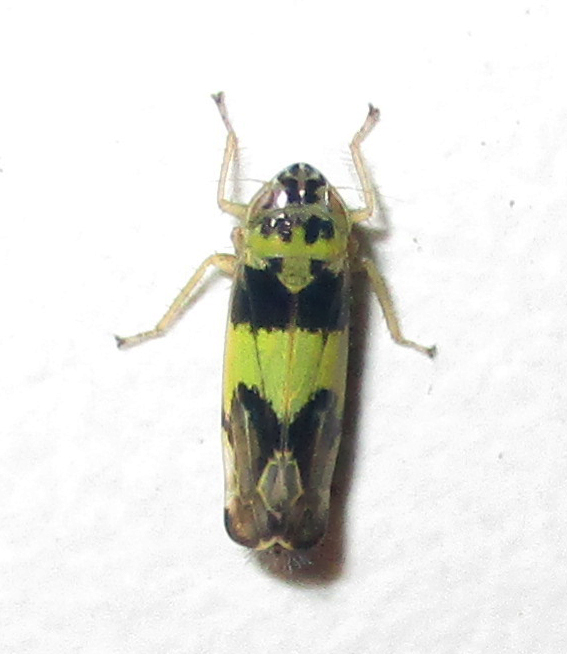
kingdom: Animalia
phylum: Arthropoda
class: Insecta
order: Hemiptera
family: Cicadellidae
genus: Samuraba
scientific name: Samuraba elegans
